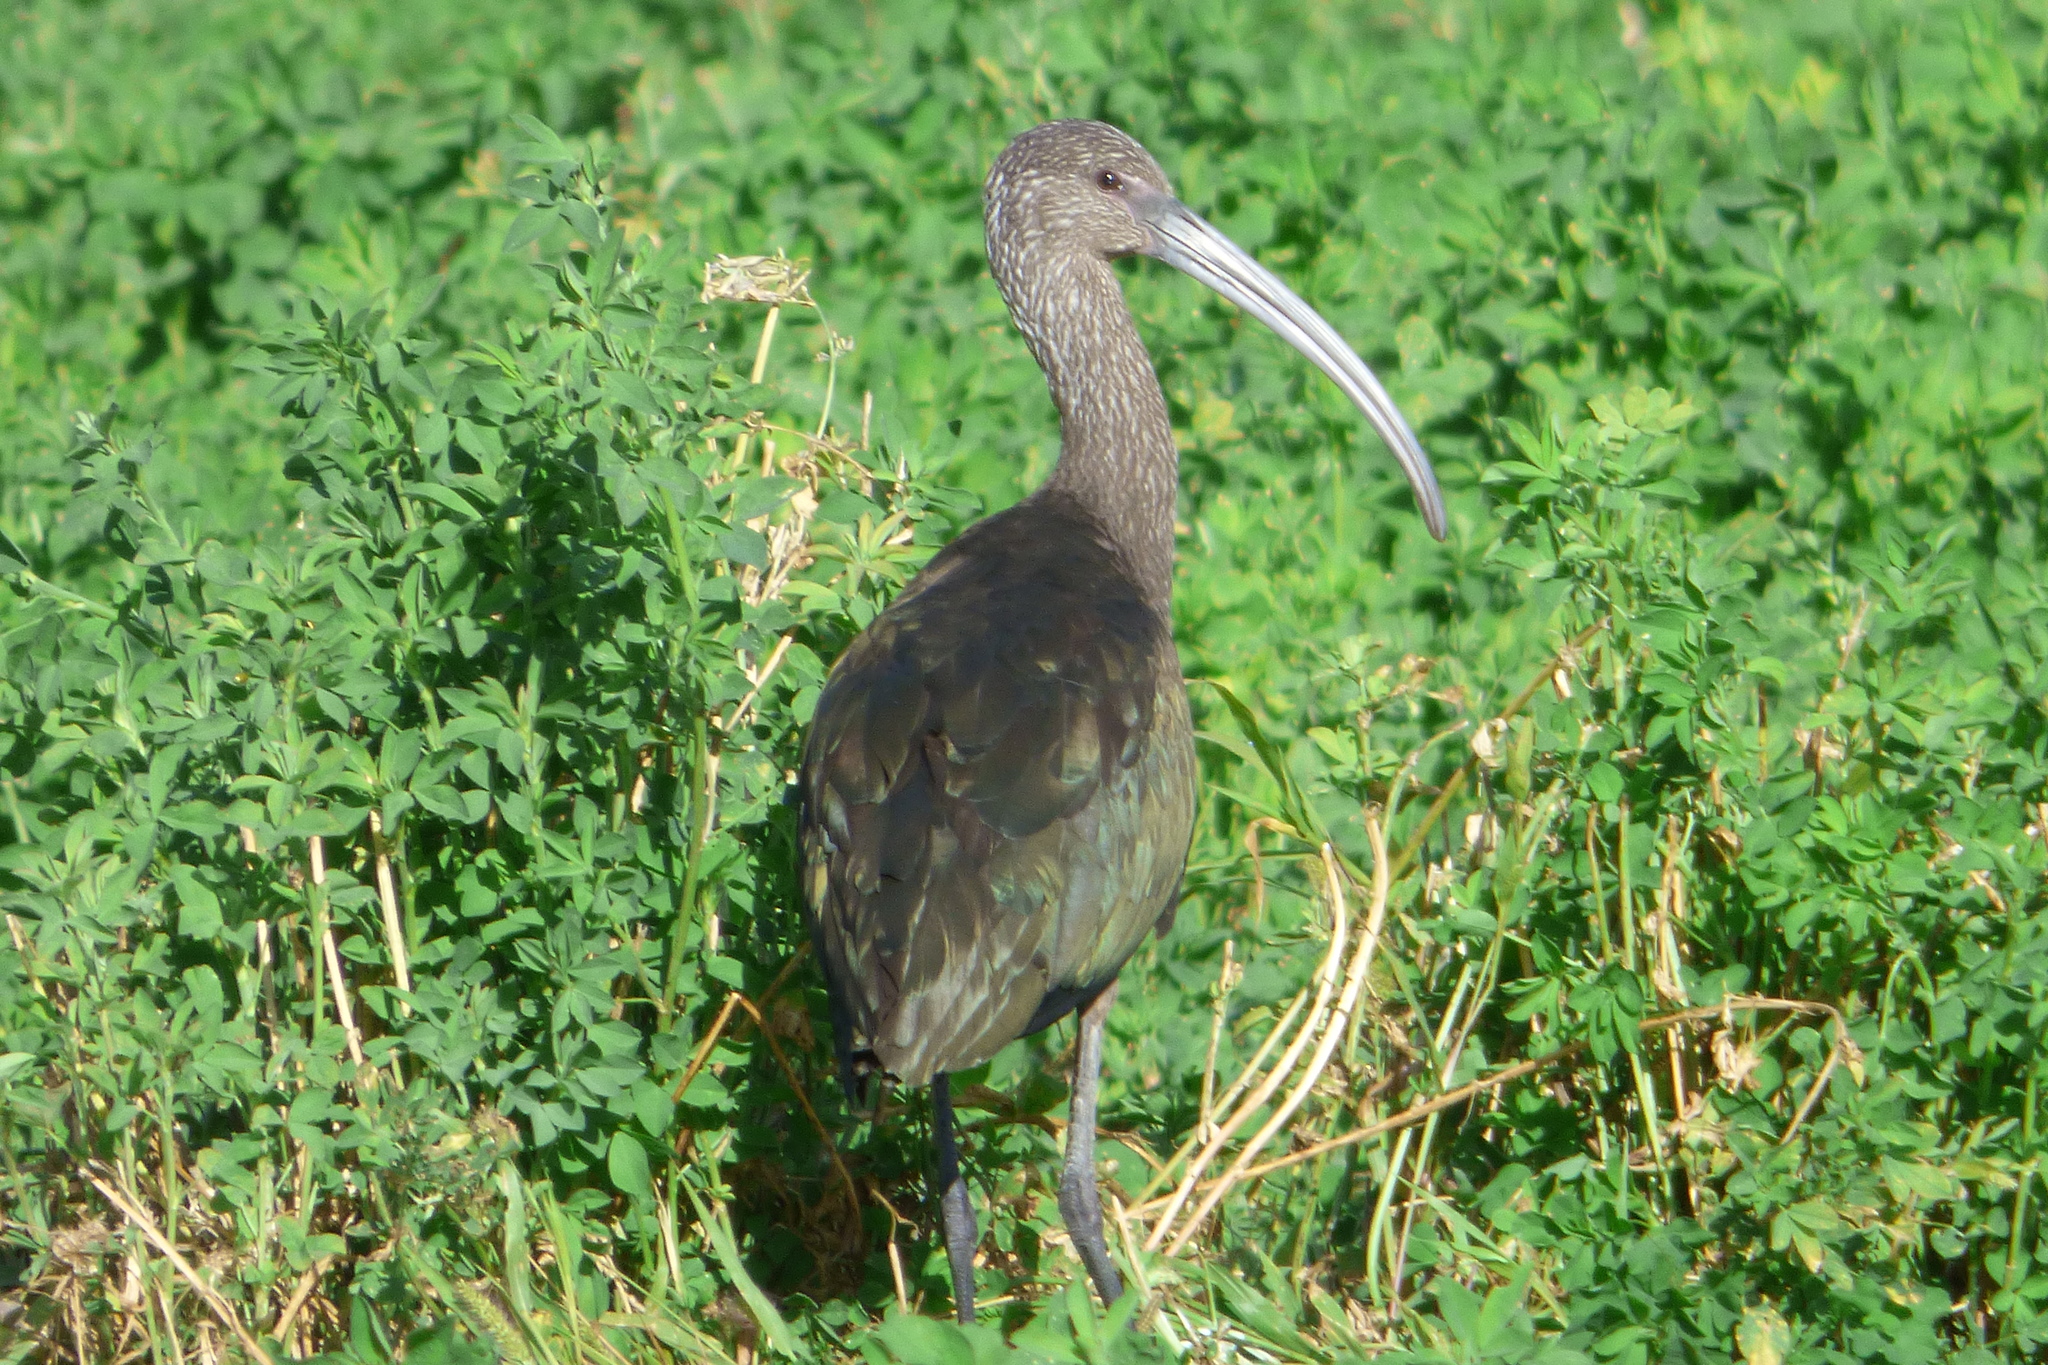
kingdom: Animalia
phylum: Chordata
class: Aves
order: Pelecaniformes
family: Threskiornithidae
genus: Plegadis
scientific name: Plegadis chihi
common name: White-faced ibis
